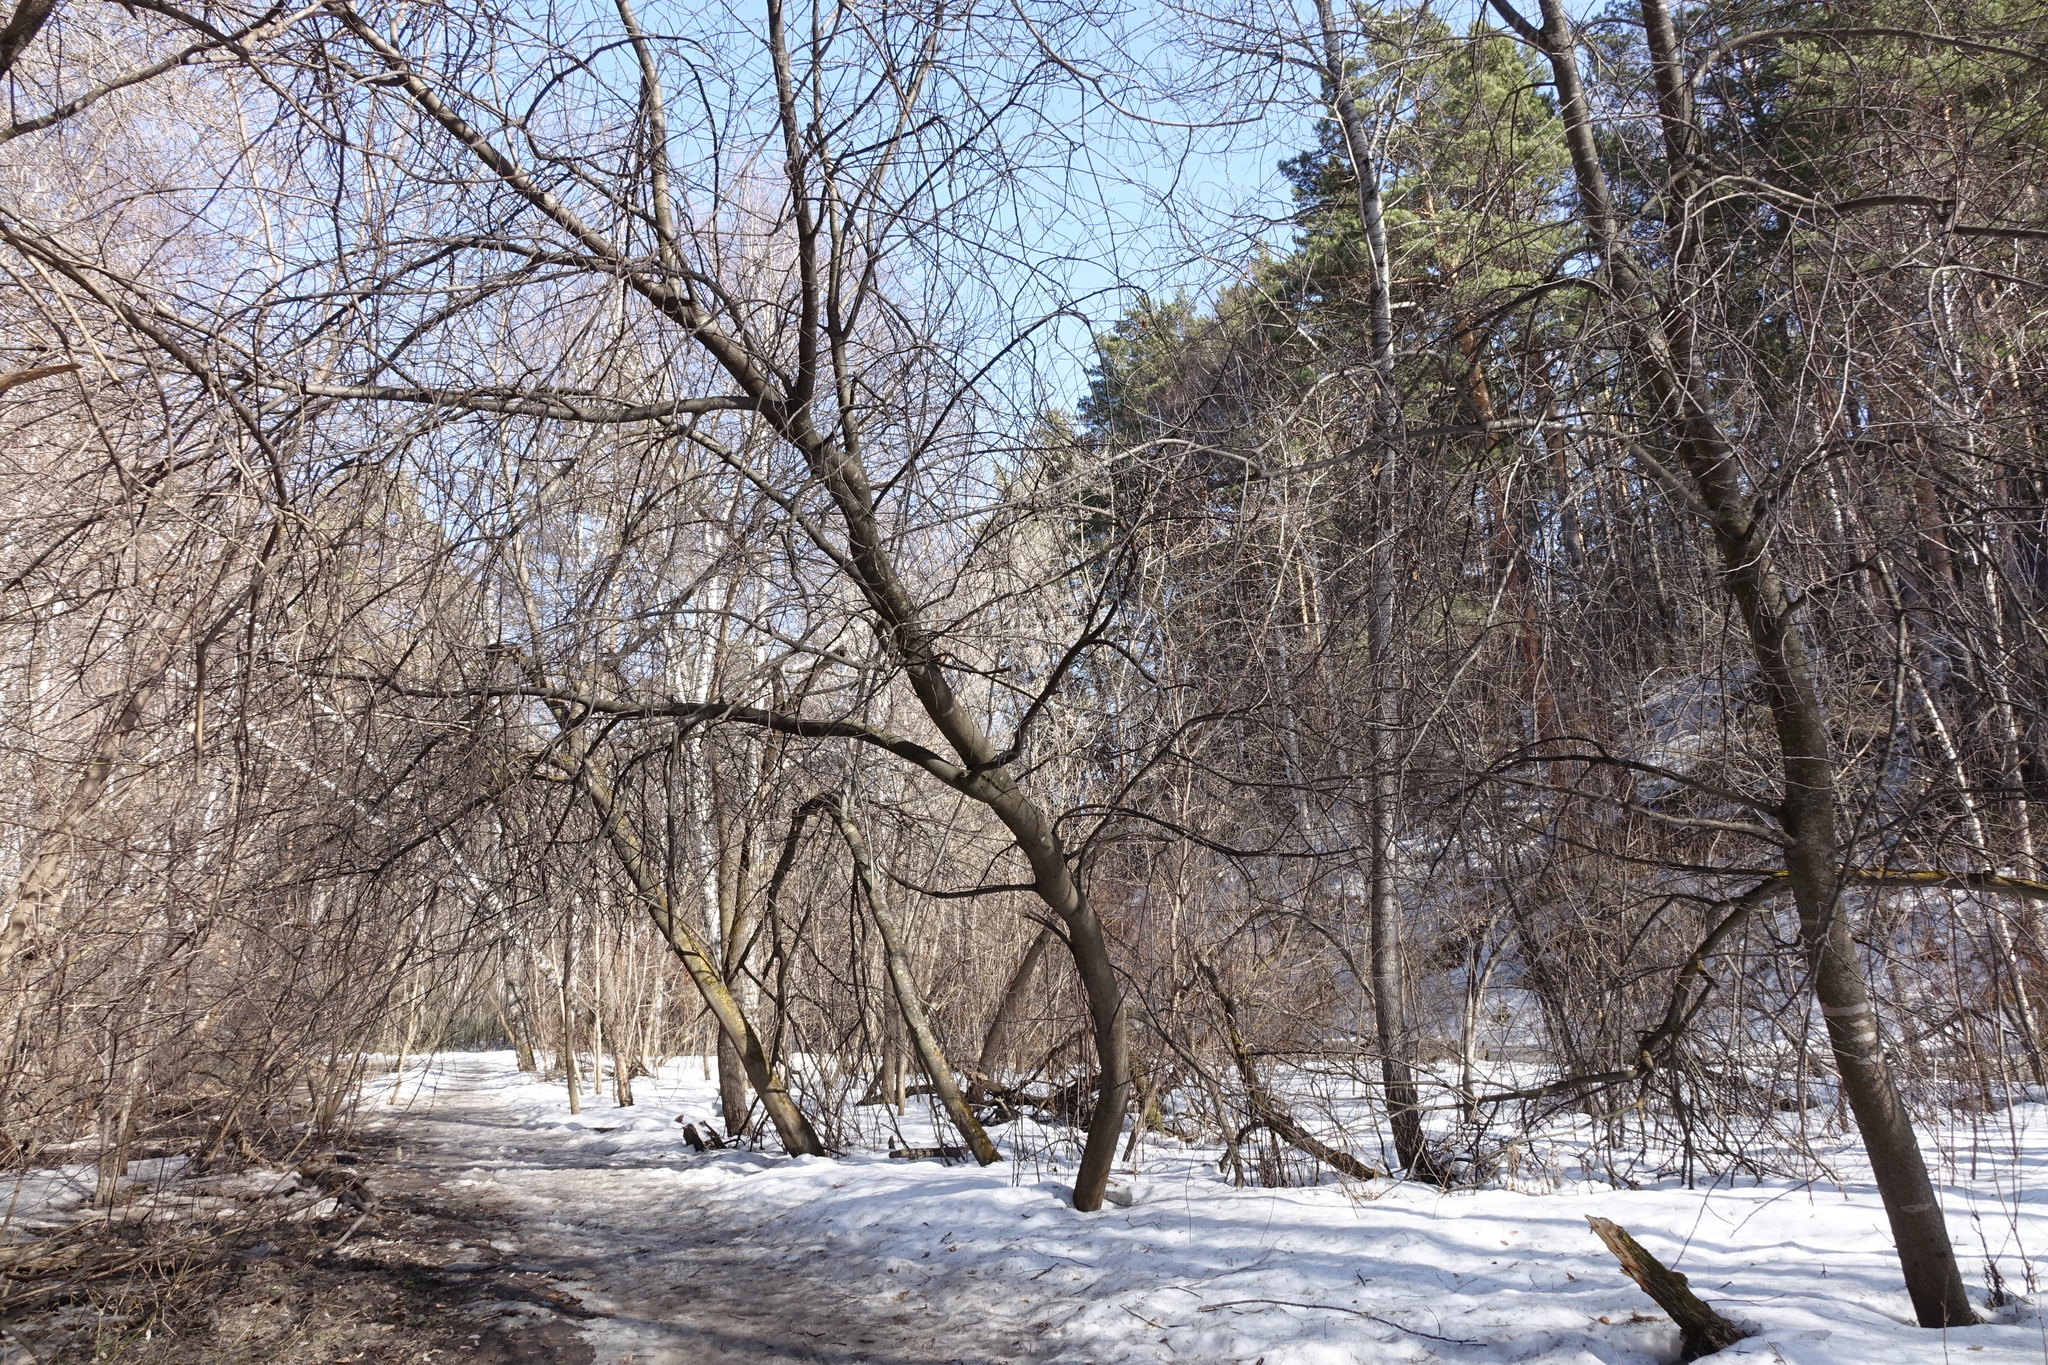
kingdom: Plantae
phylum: Tracheophyta
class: Magnoliopsida
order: Rosales
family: Rosaceae
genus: Prunus
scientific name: Prunus padus
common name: Bird cherry
